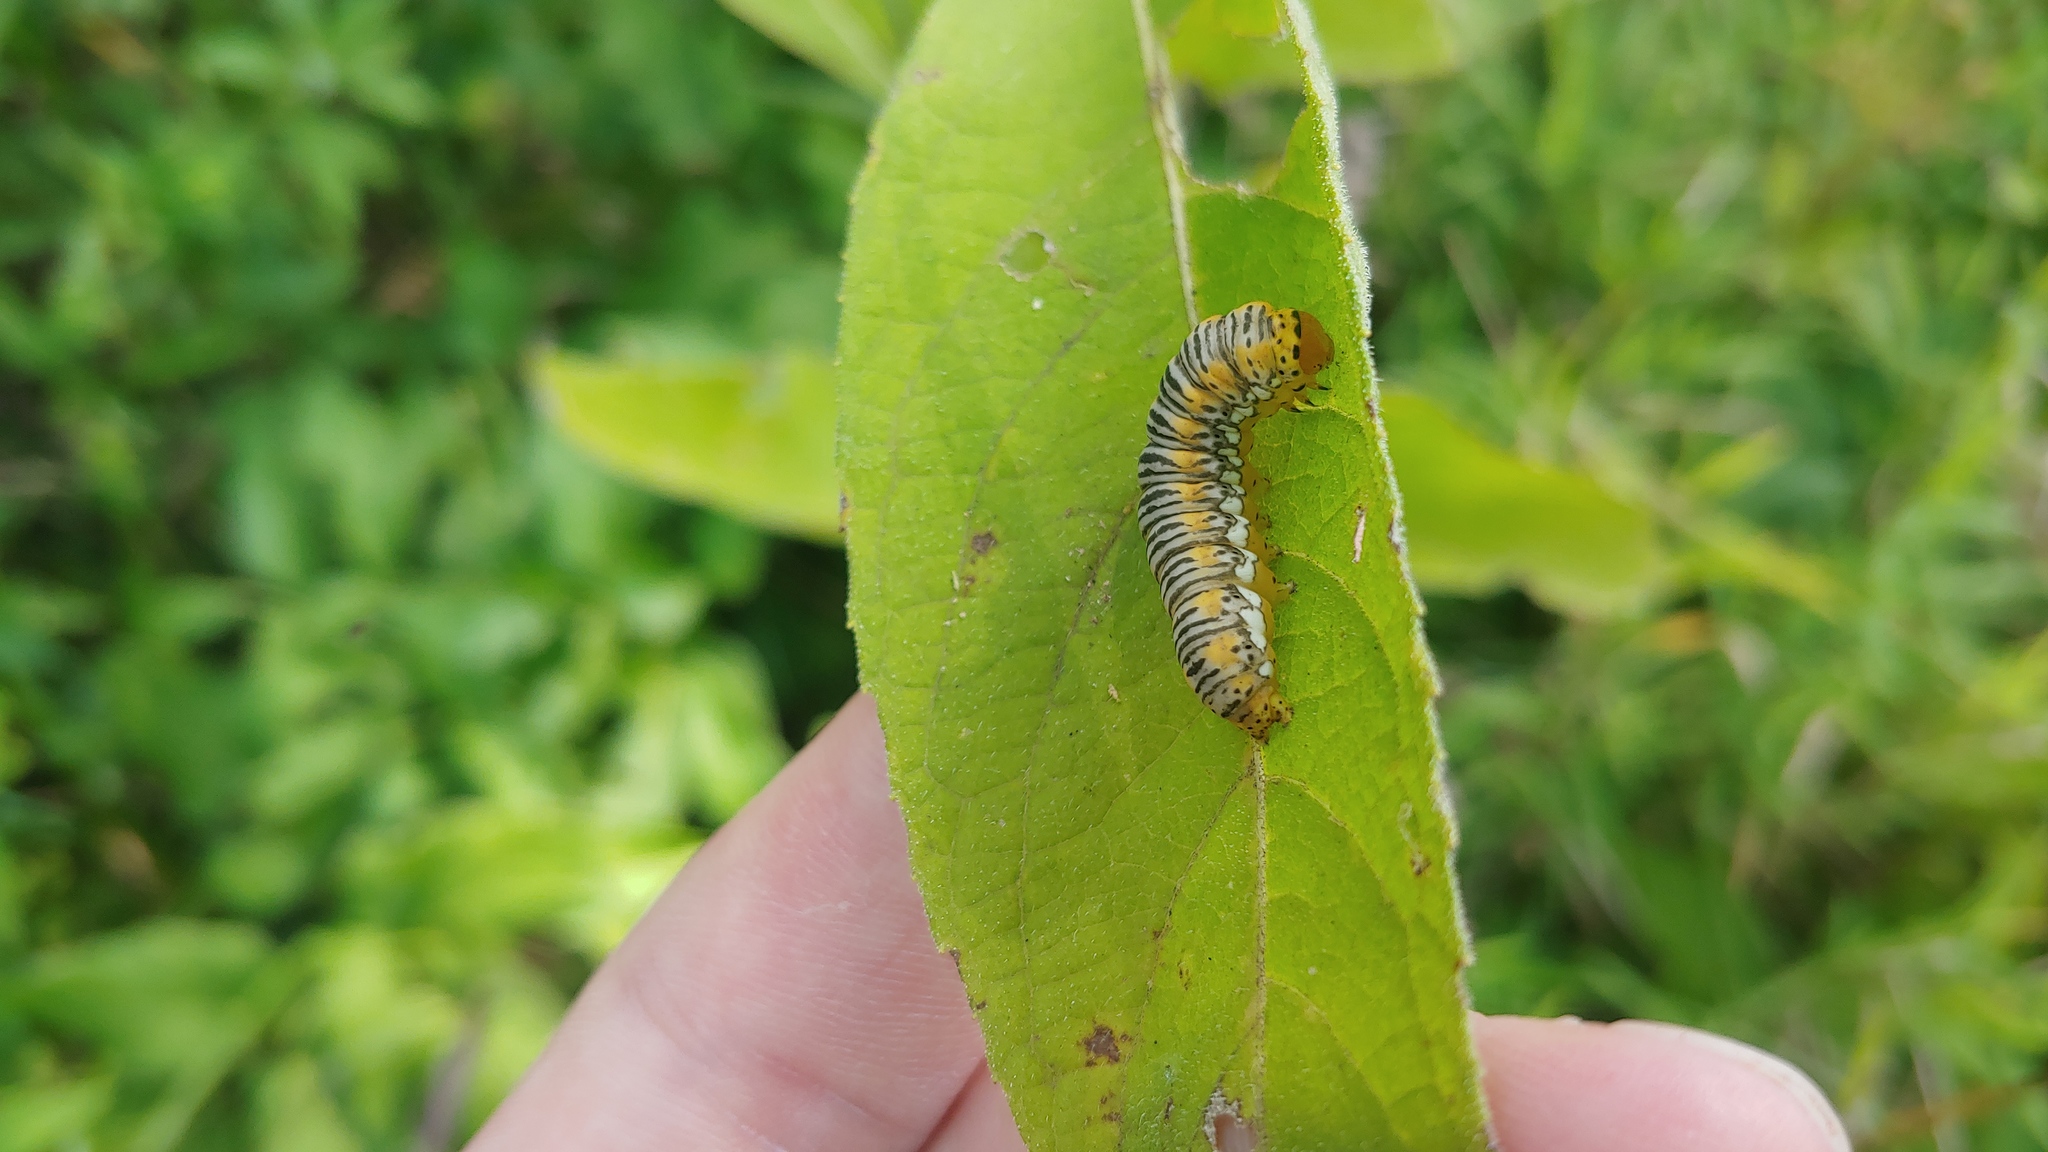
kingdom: Animalia
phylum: Arthropoda
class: Insecta
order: Lepidoptera
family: Noctuidae
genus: Basilodes
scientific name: Basilodes pepita
